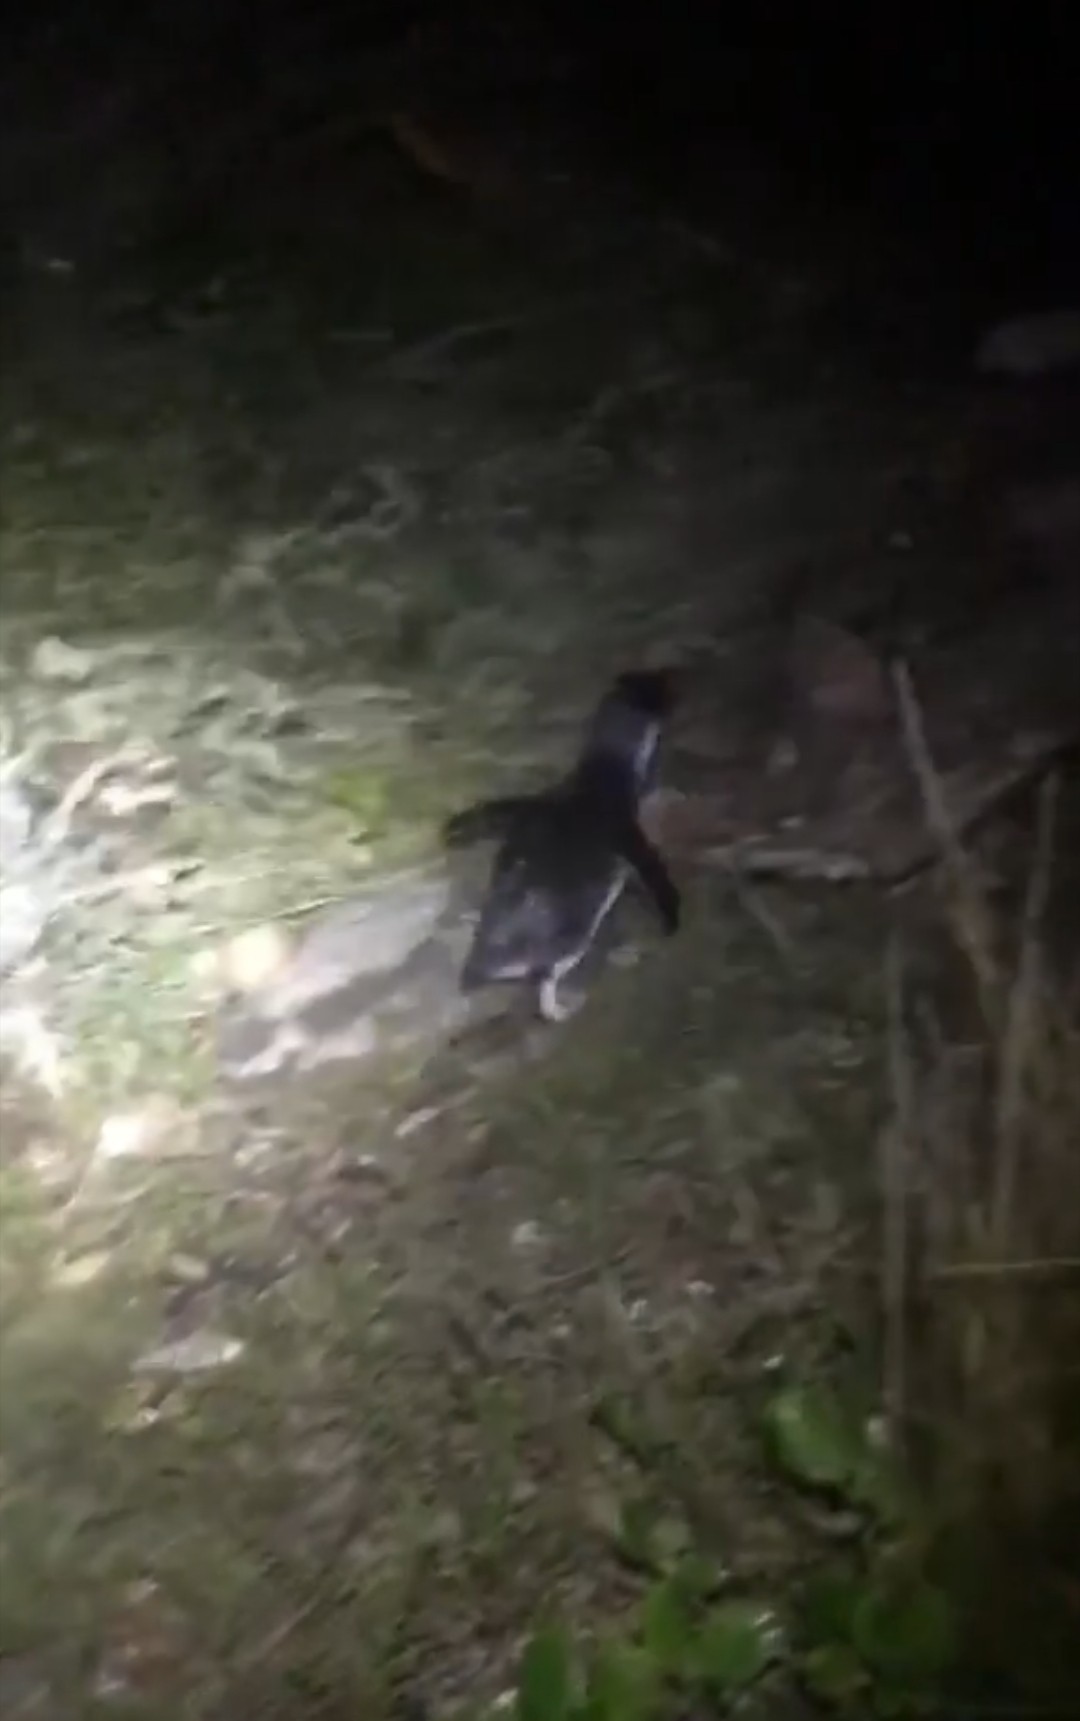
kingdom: Animalia
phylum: Chordata
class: Aves
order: Sphenisciformes
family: Spheniscidae
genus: Eudyptula
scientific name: Eudyptula minor
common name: Little penguin
